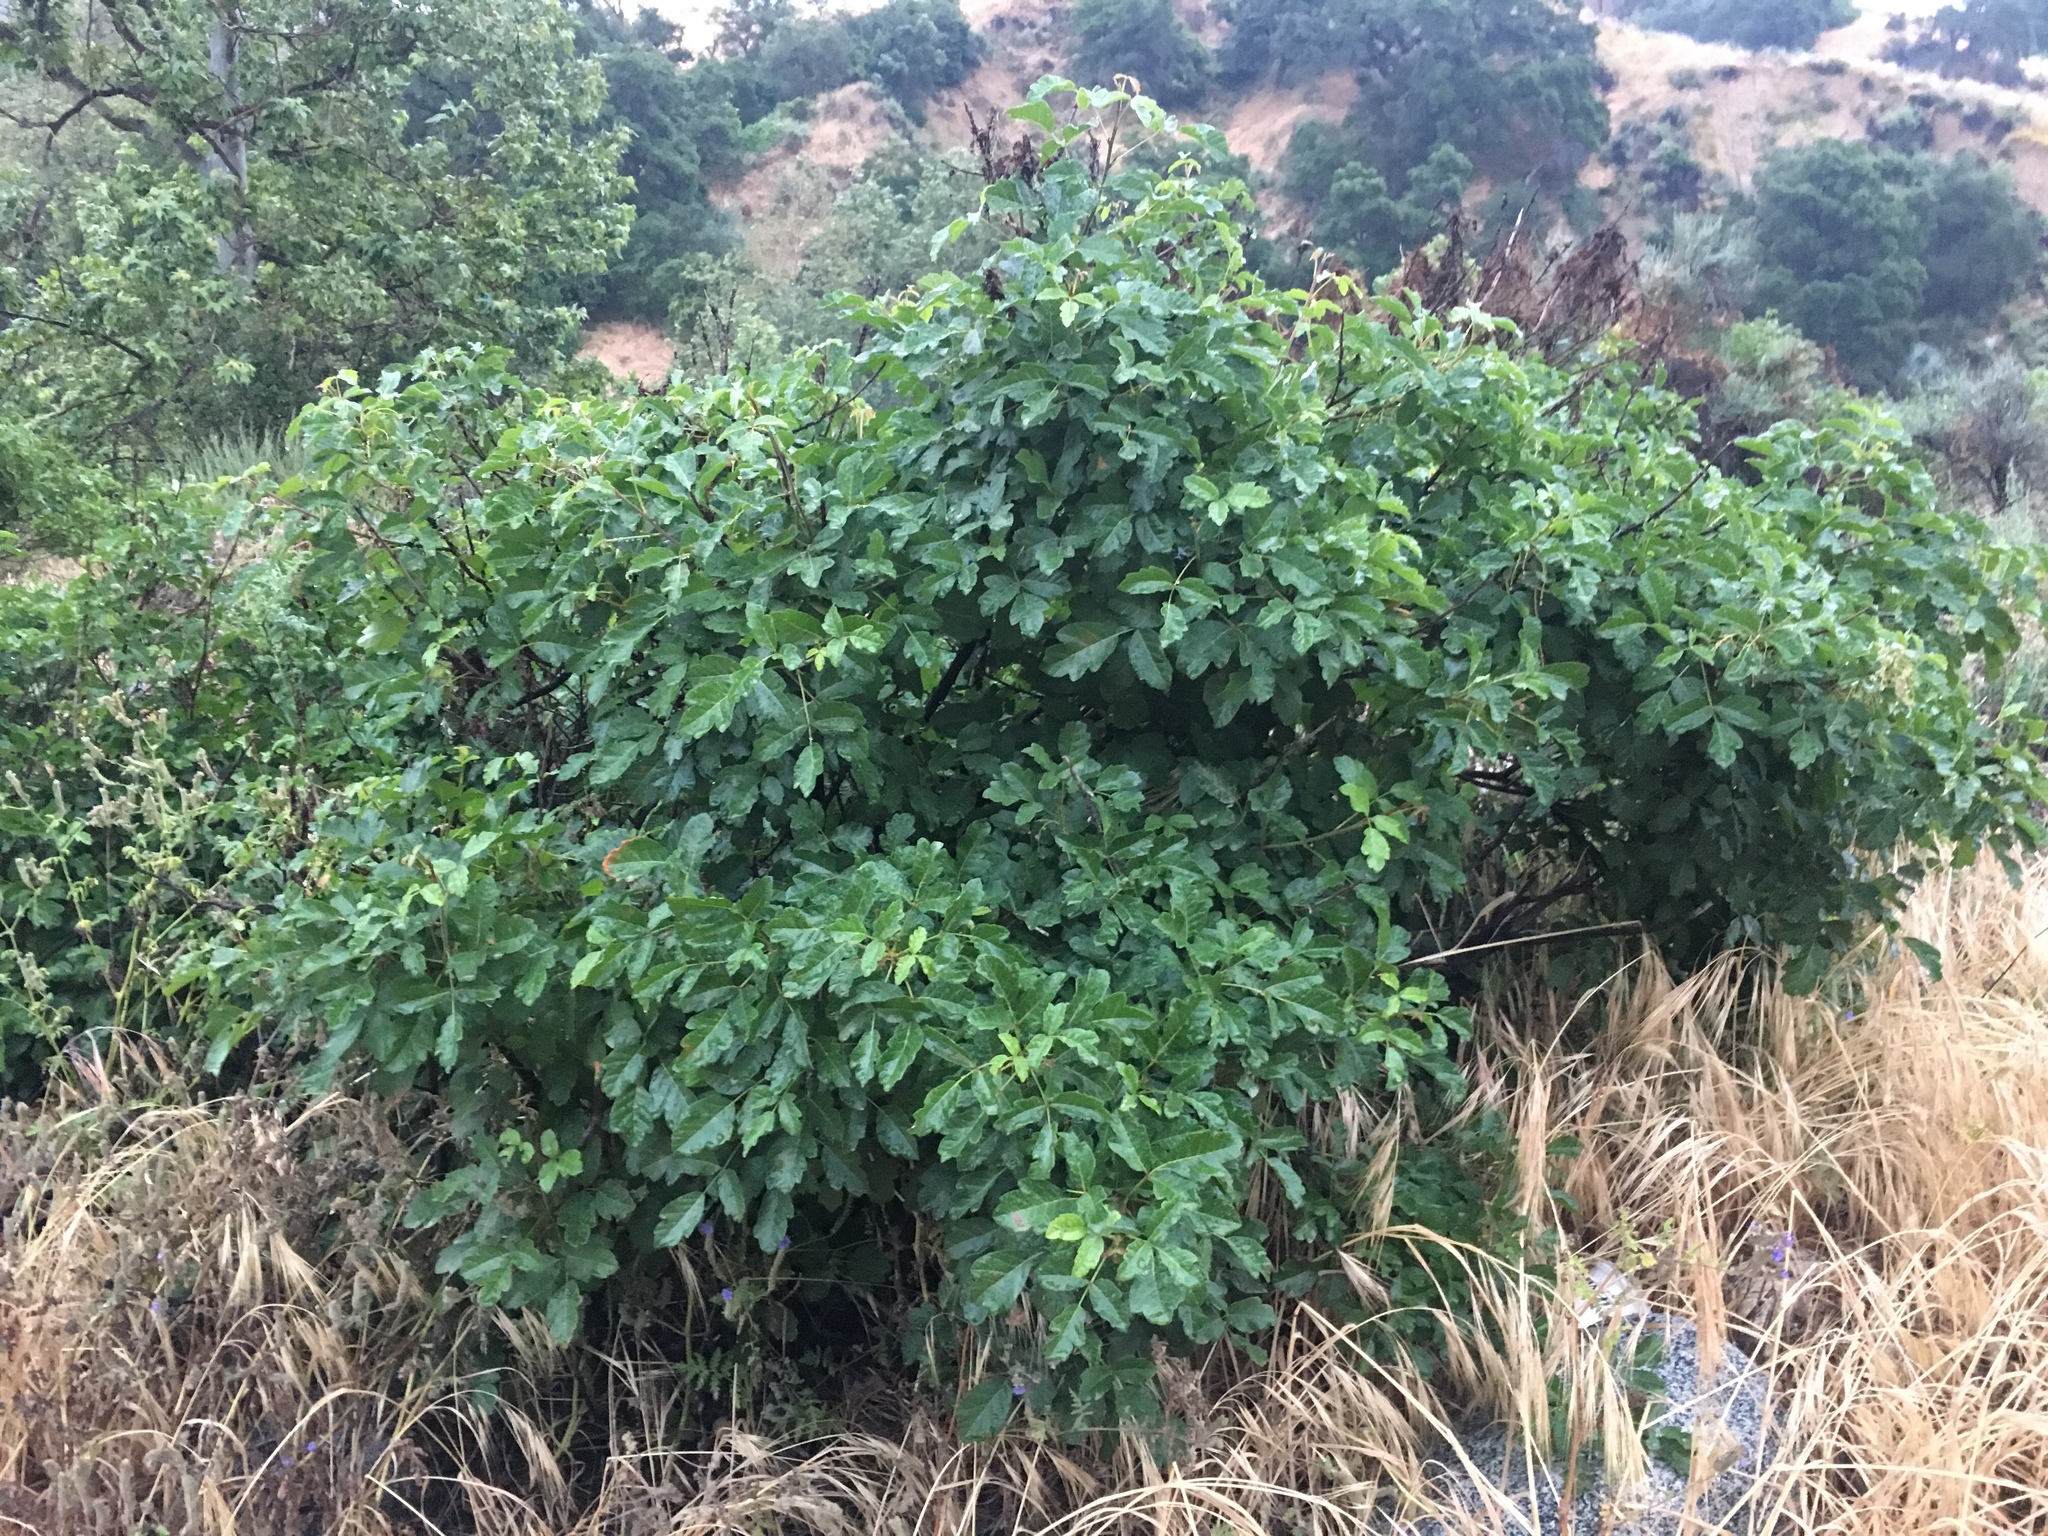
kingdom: Plantae
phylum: Tracheophyta
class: Magnoliopsida
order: Sapindales
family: Anacardiaceae
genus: Toxicodendron
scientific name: Toxicodendron diversilobum
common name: Pacific poison-oak
